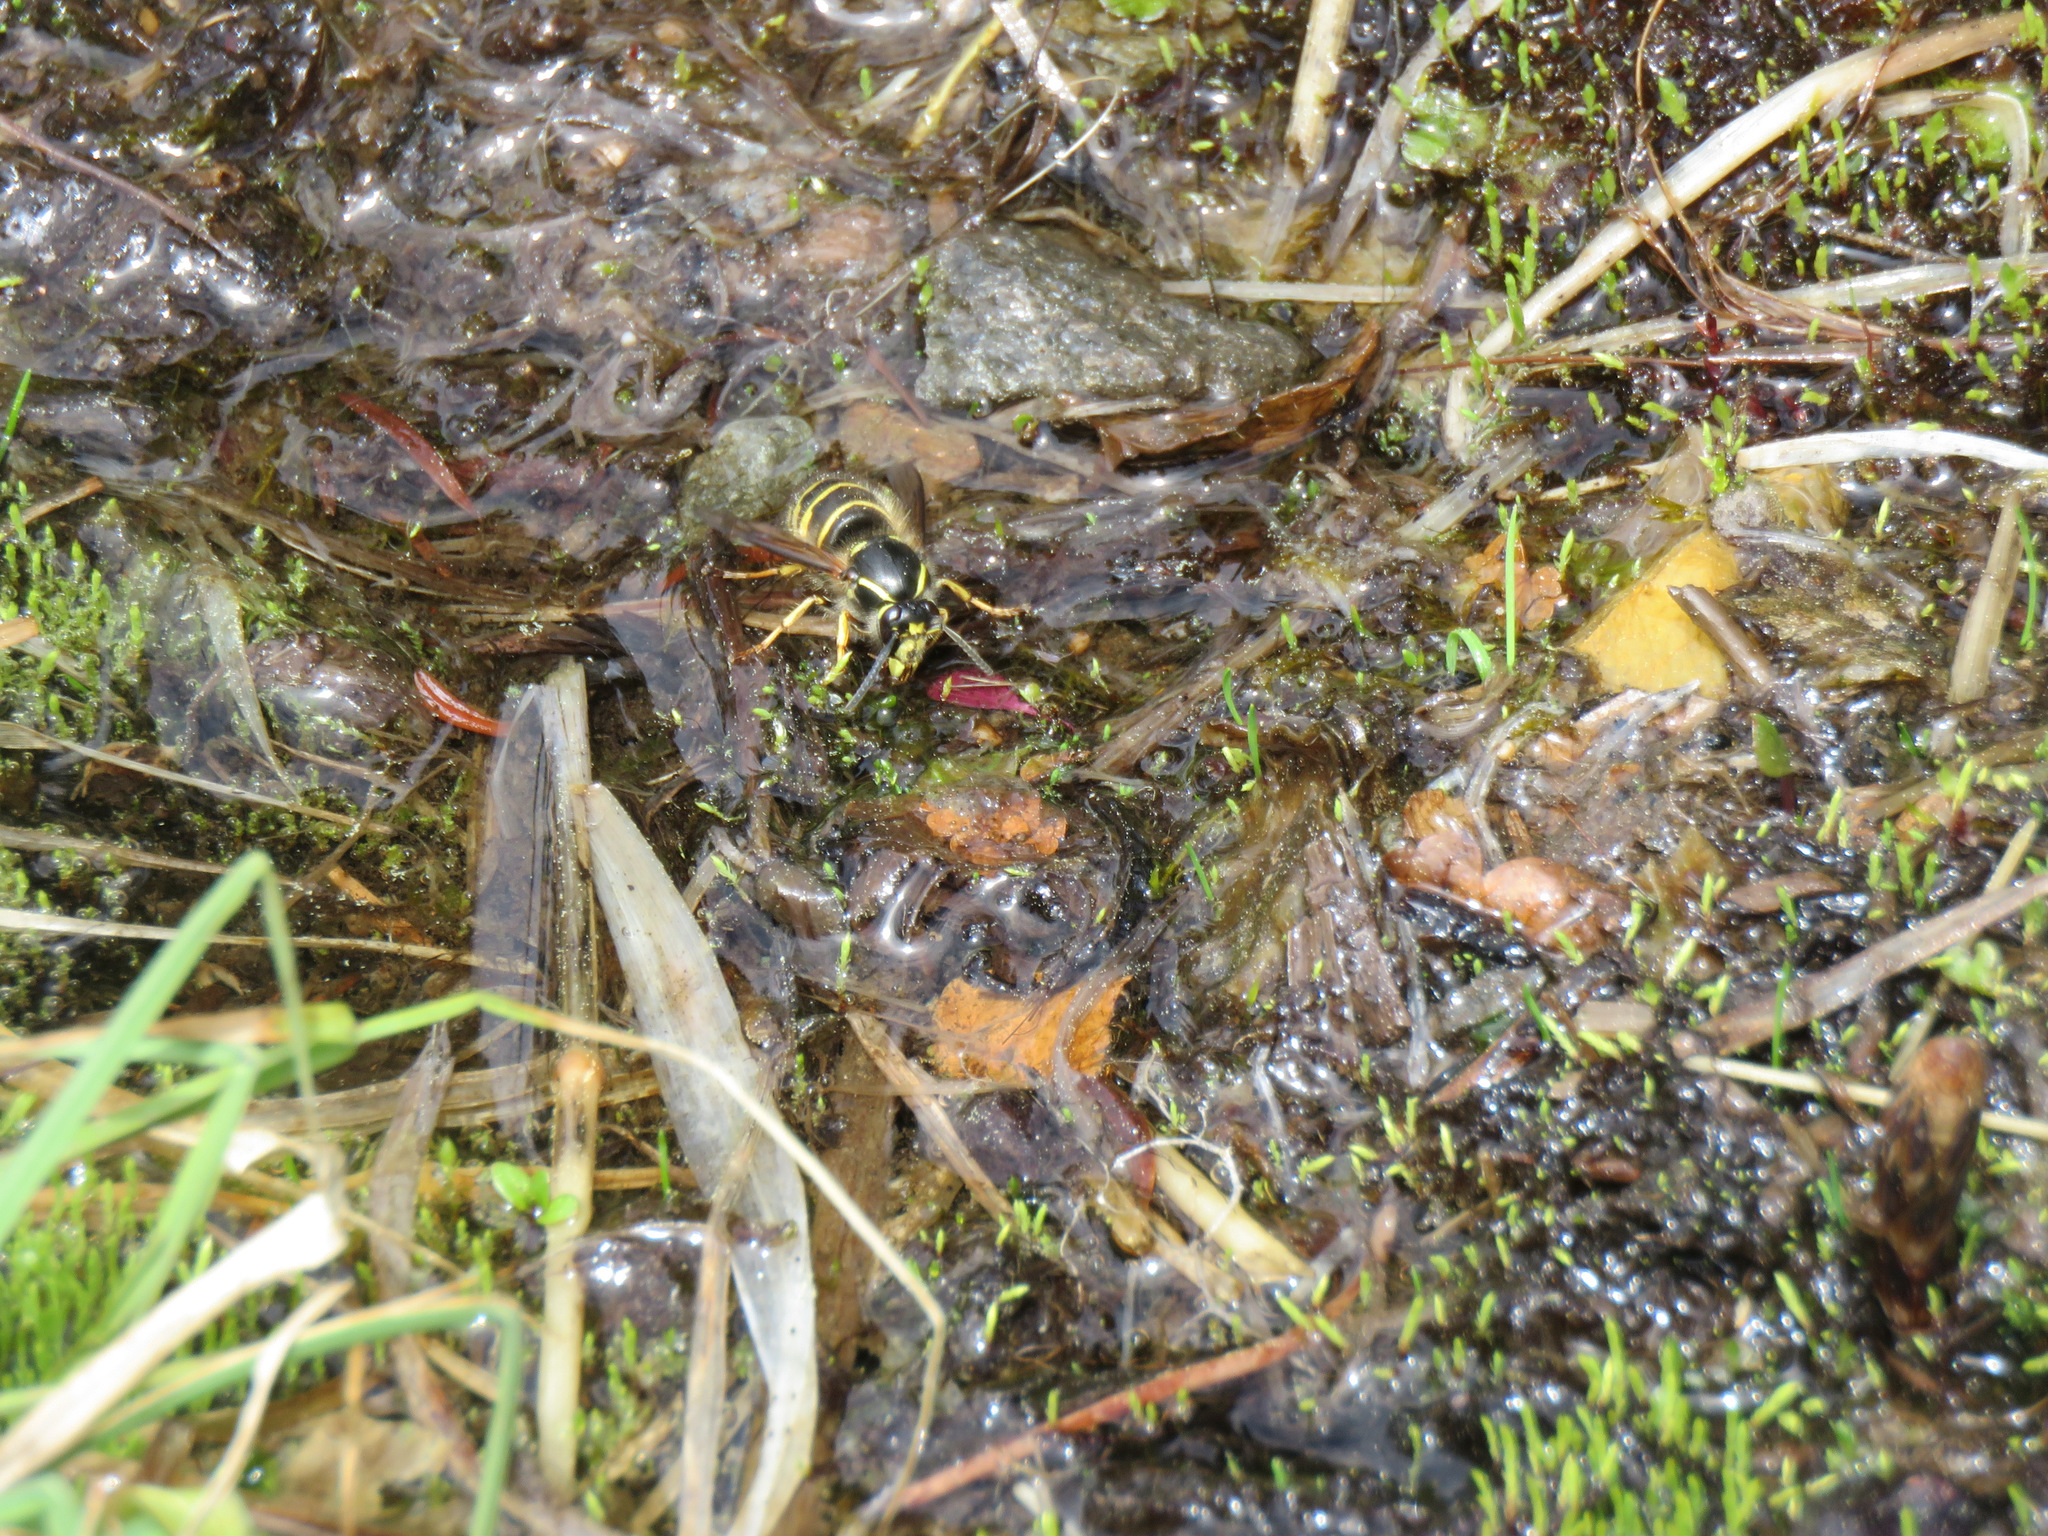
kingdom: Animalia
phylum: Arthropoda
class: Insecta
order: Hymenoptera
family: Vespidae
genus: Dolichovespula
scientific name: Dolichovespula
